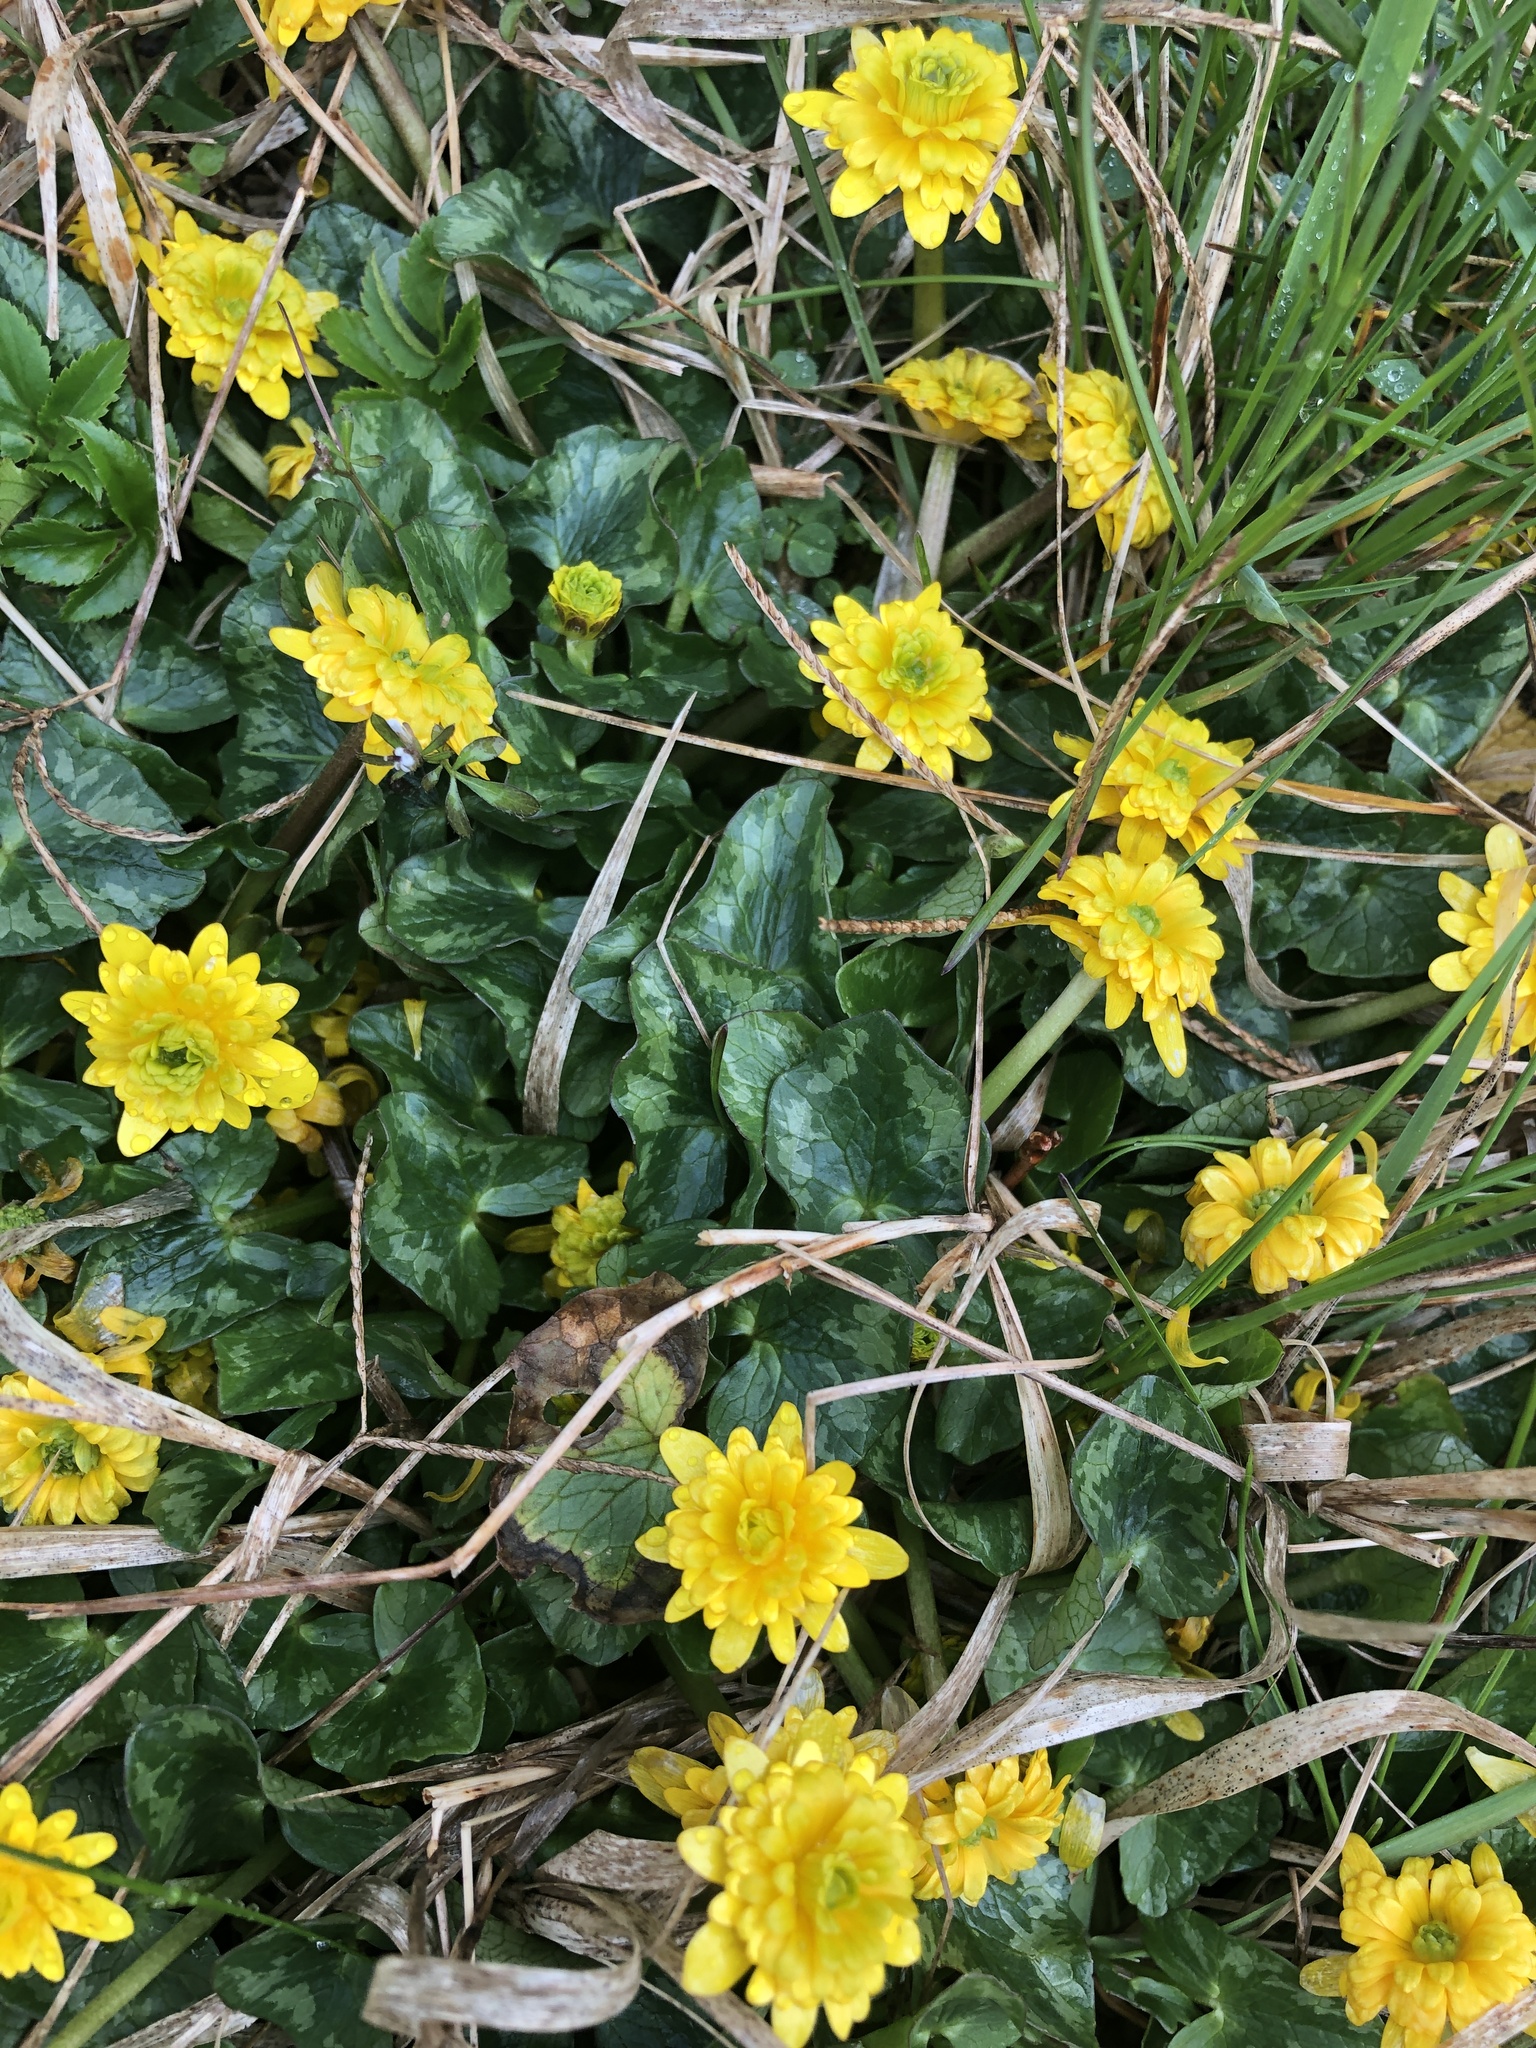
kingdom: Plantae
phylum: Tracheophyta
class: Magnoliopsida
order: Ranunculales
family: Ranunculaceae
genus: Ficaria
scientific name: Ficaria verna
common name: Lesser celandine
